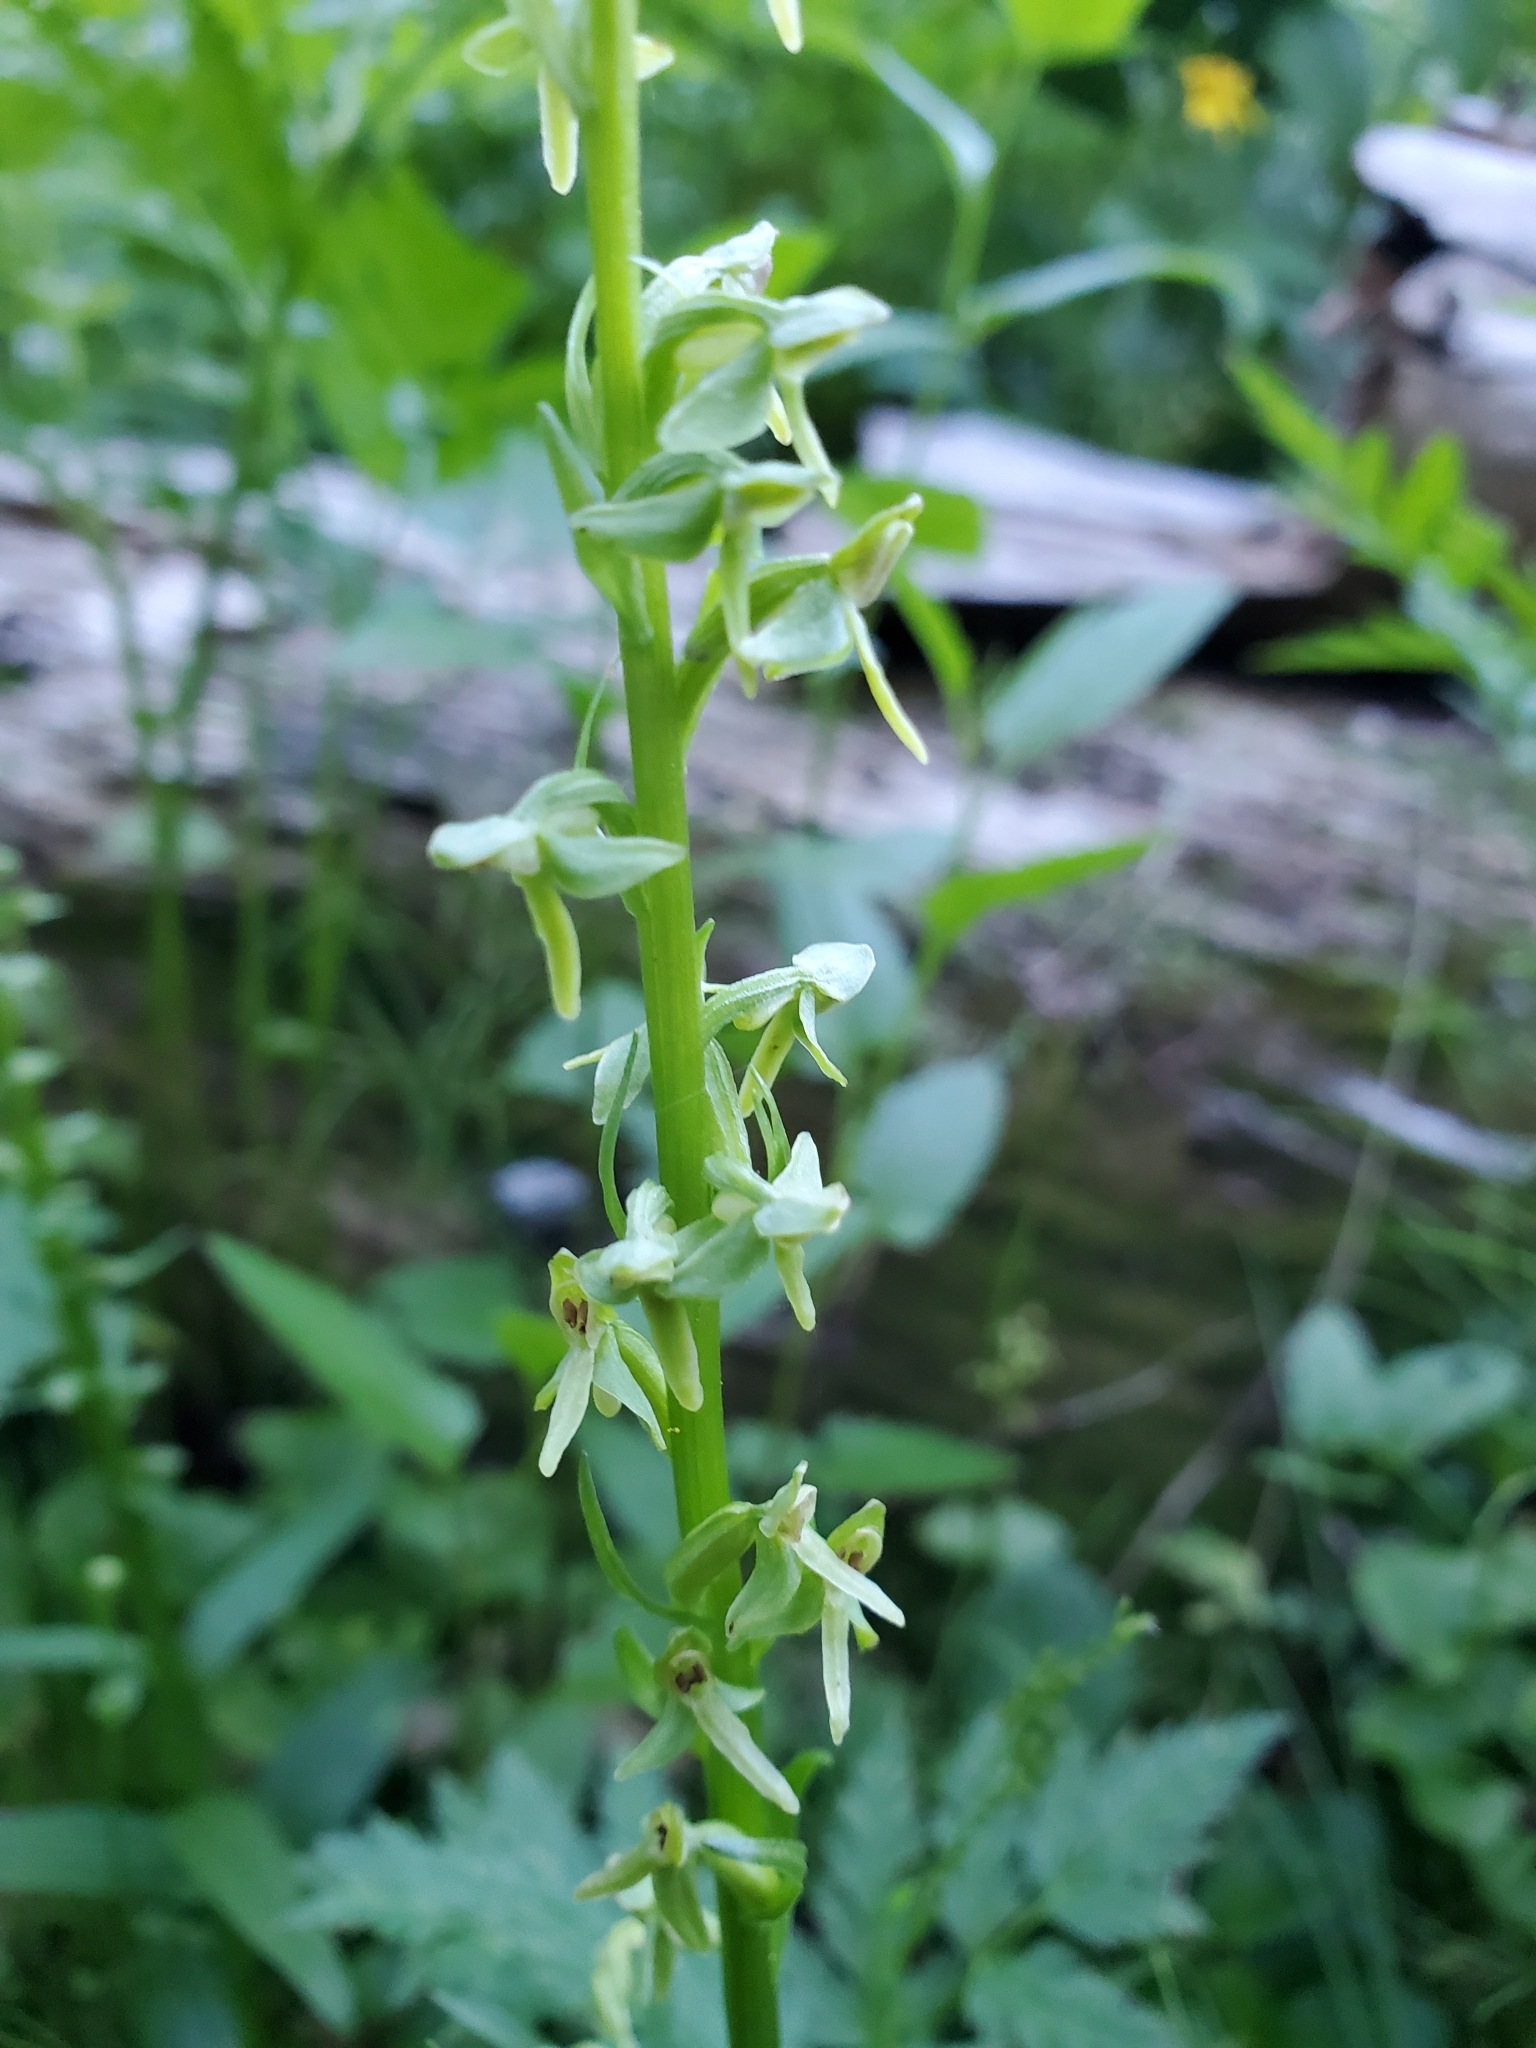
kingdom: Plantae
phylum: Tracheophyta
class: Liliopsida
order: Asparagales
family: Orchidaceae
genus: Platanthera
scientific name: Platanthera stricta
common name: Slender bog orchid
